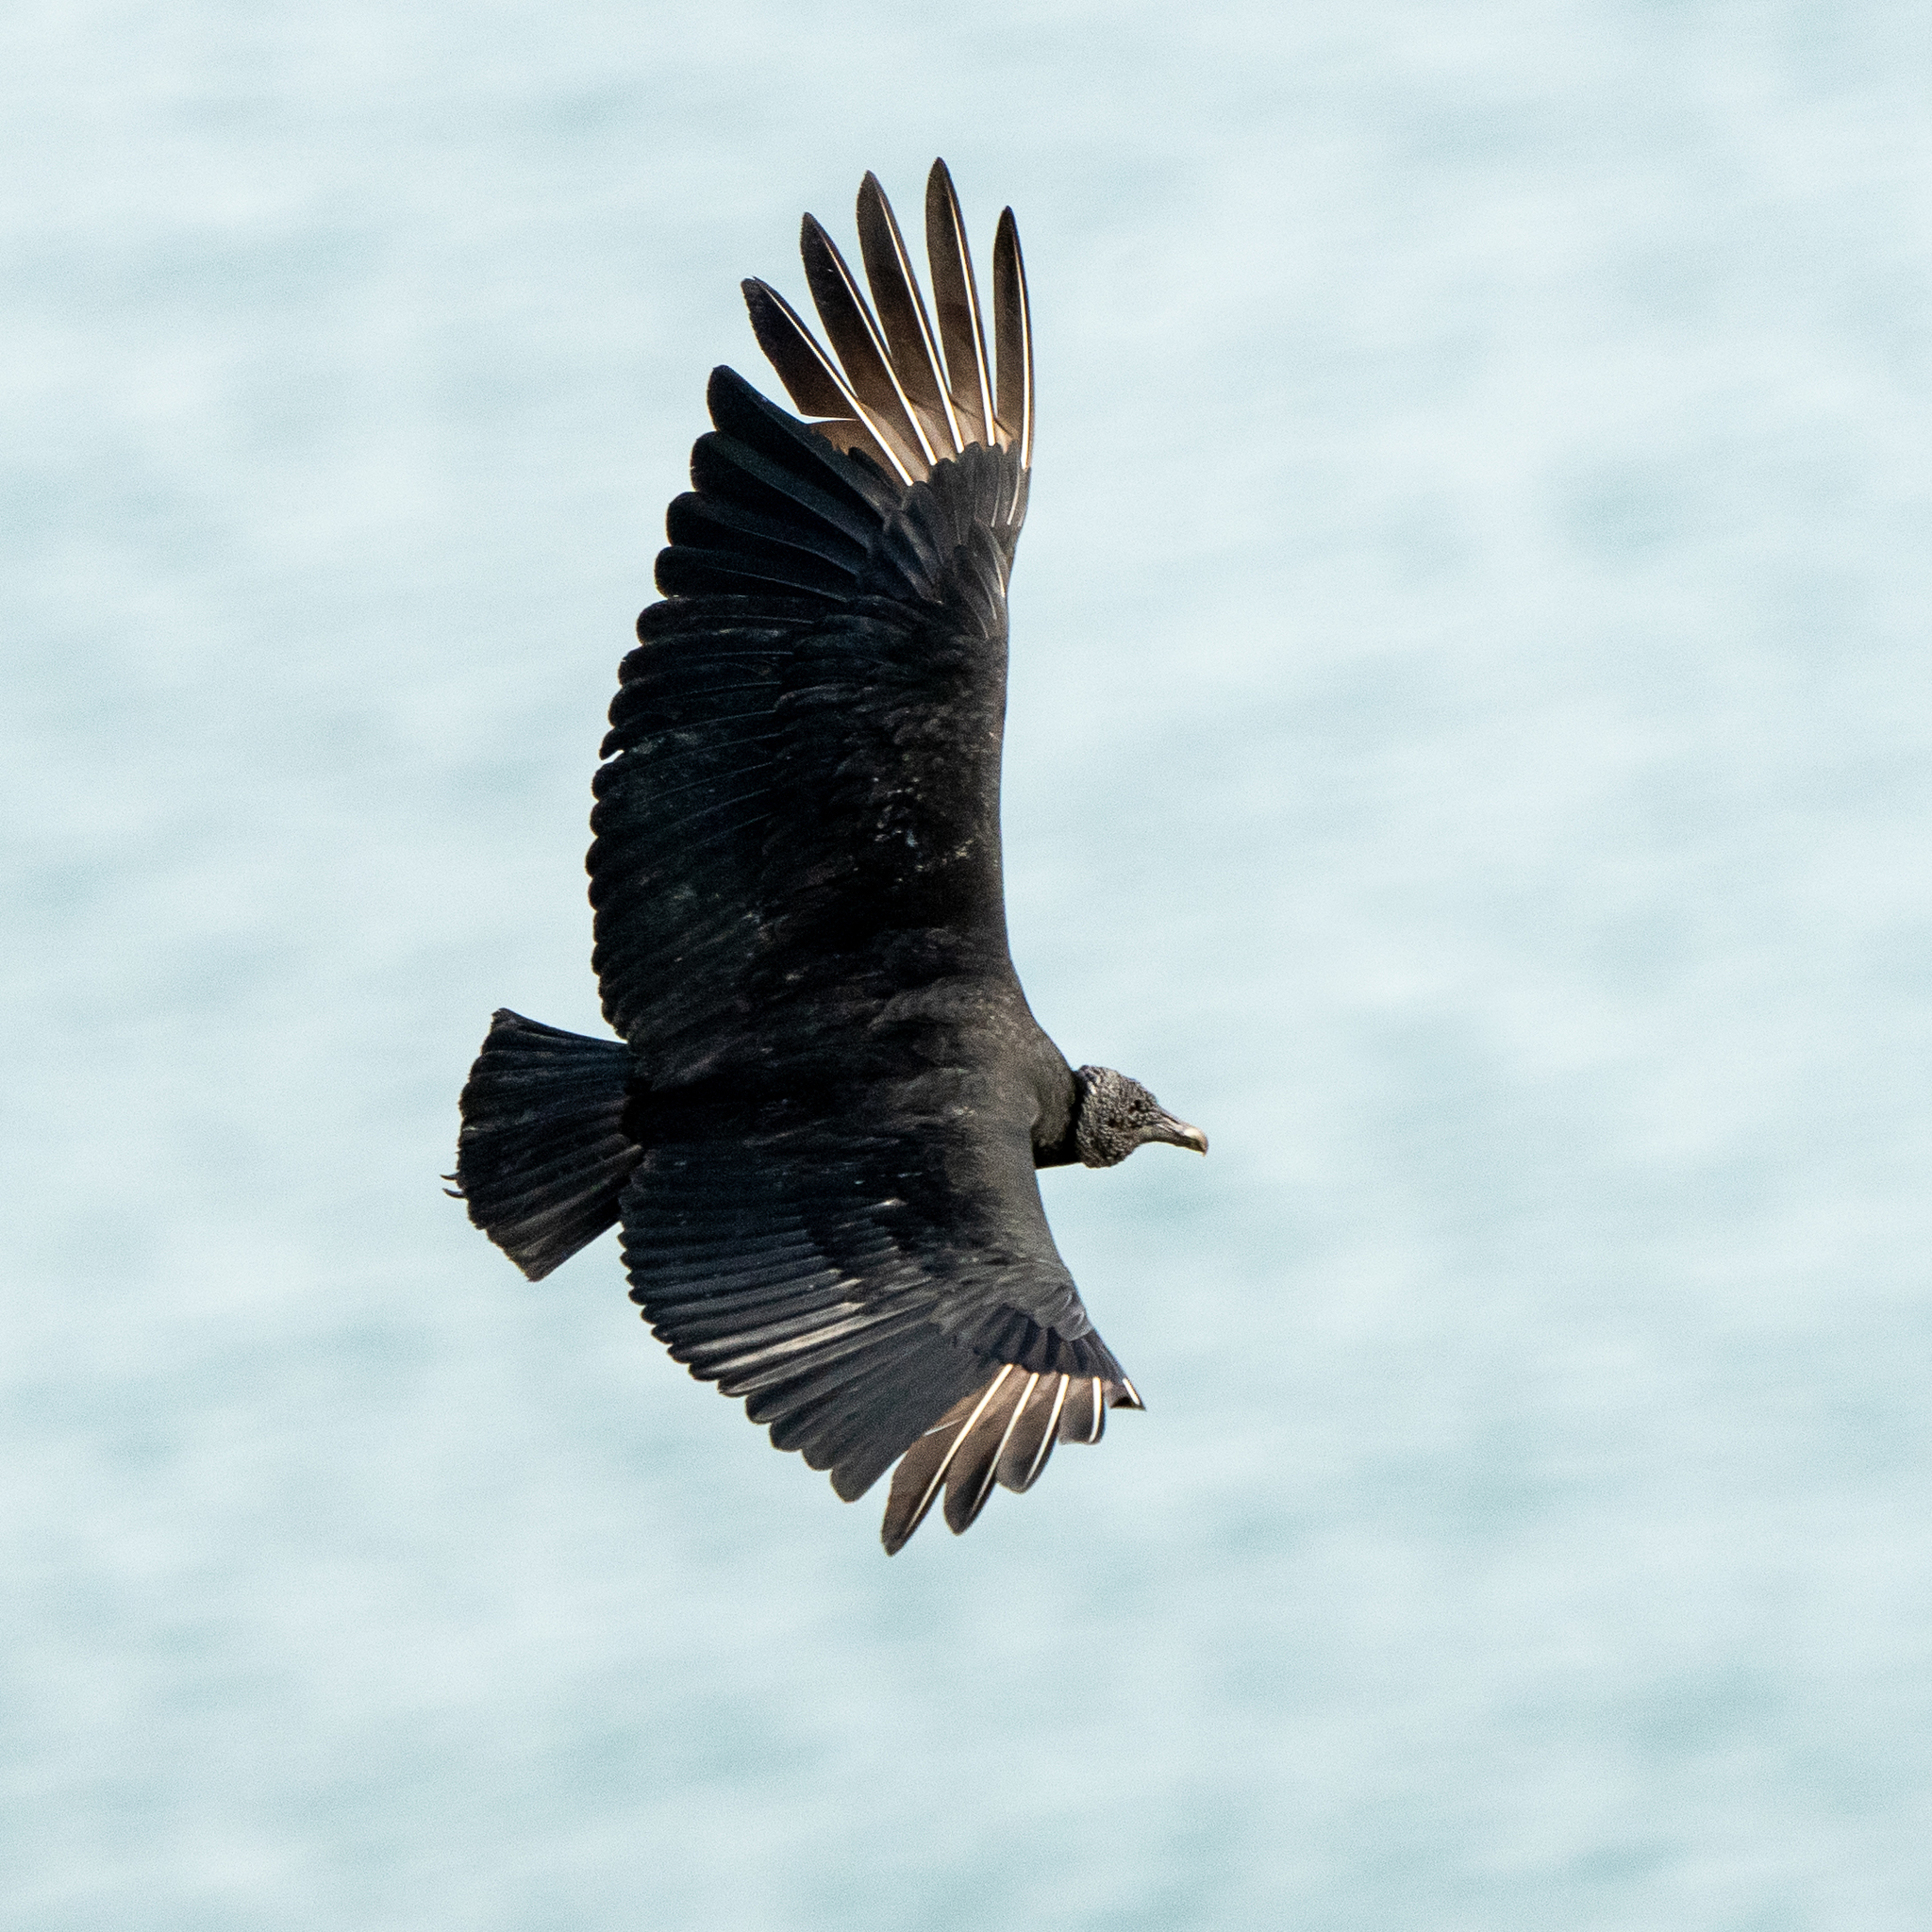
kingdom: Animalia
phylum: Chordata
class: Aves
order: Accipitriformes
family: Cathartidae
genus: Coragyps
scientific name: Coragyps atratus
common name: Black vulture
